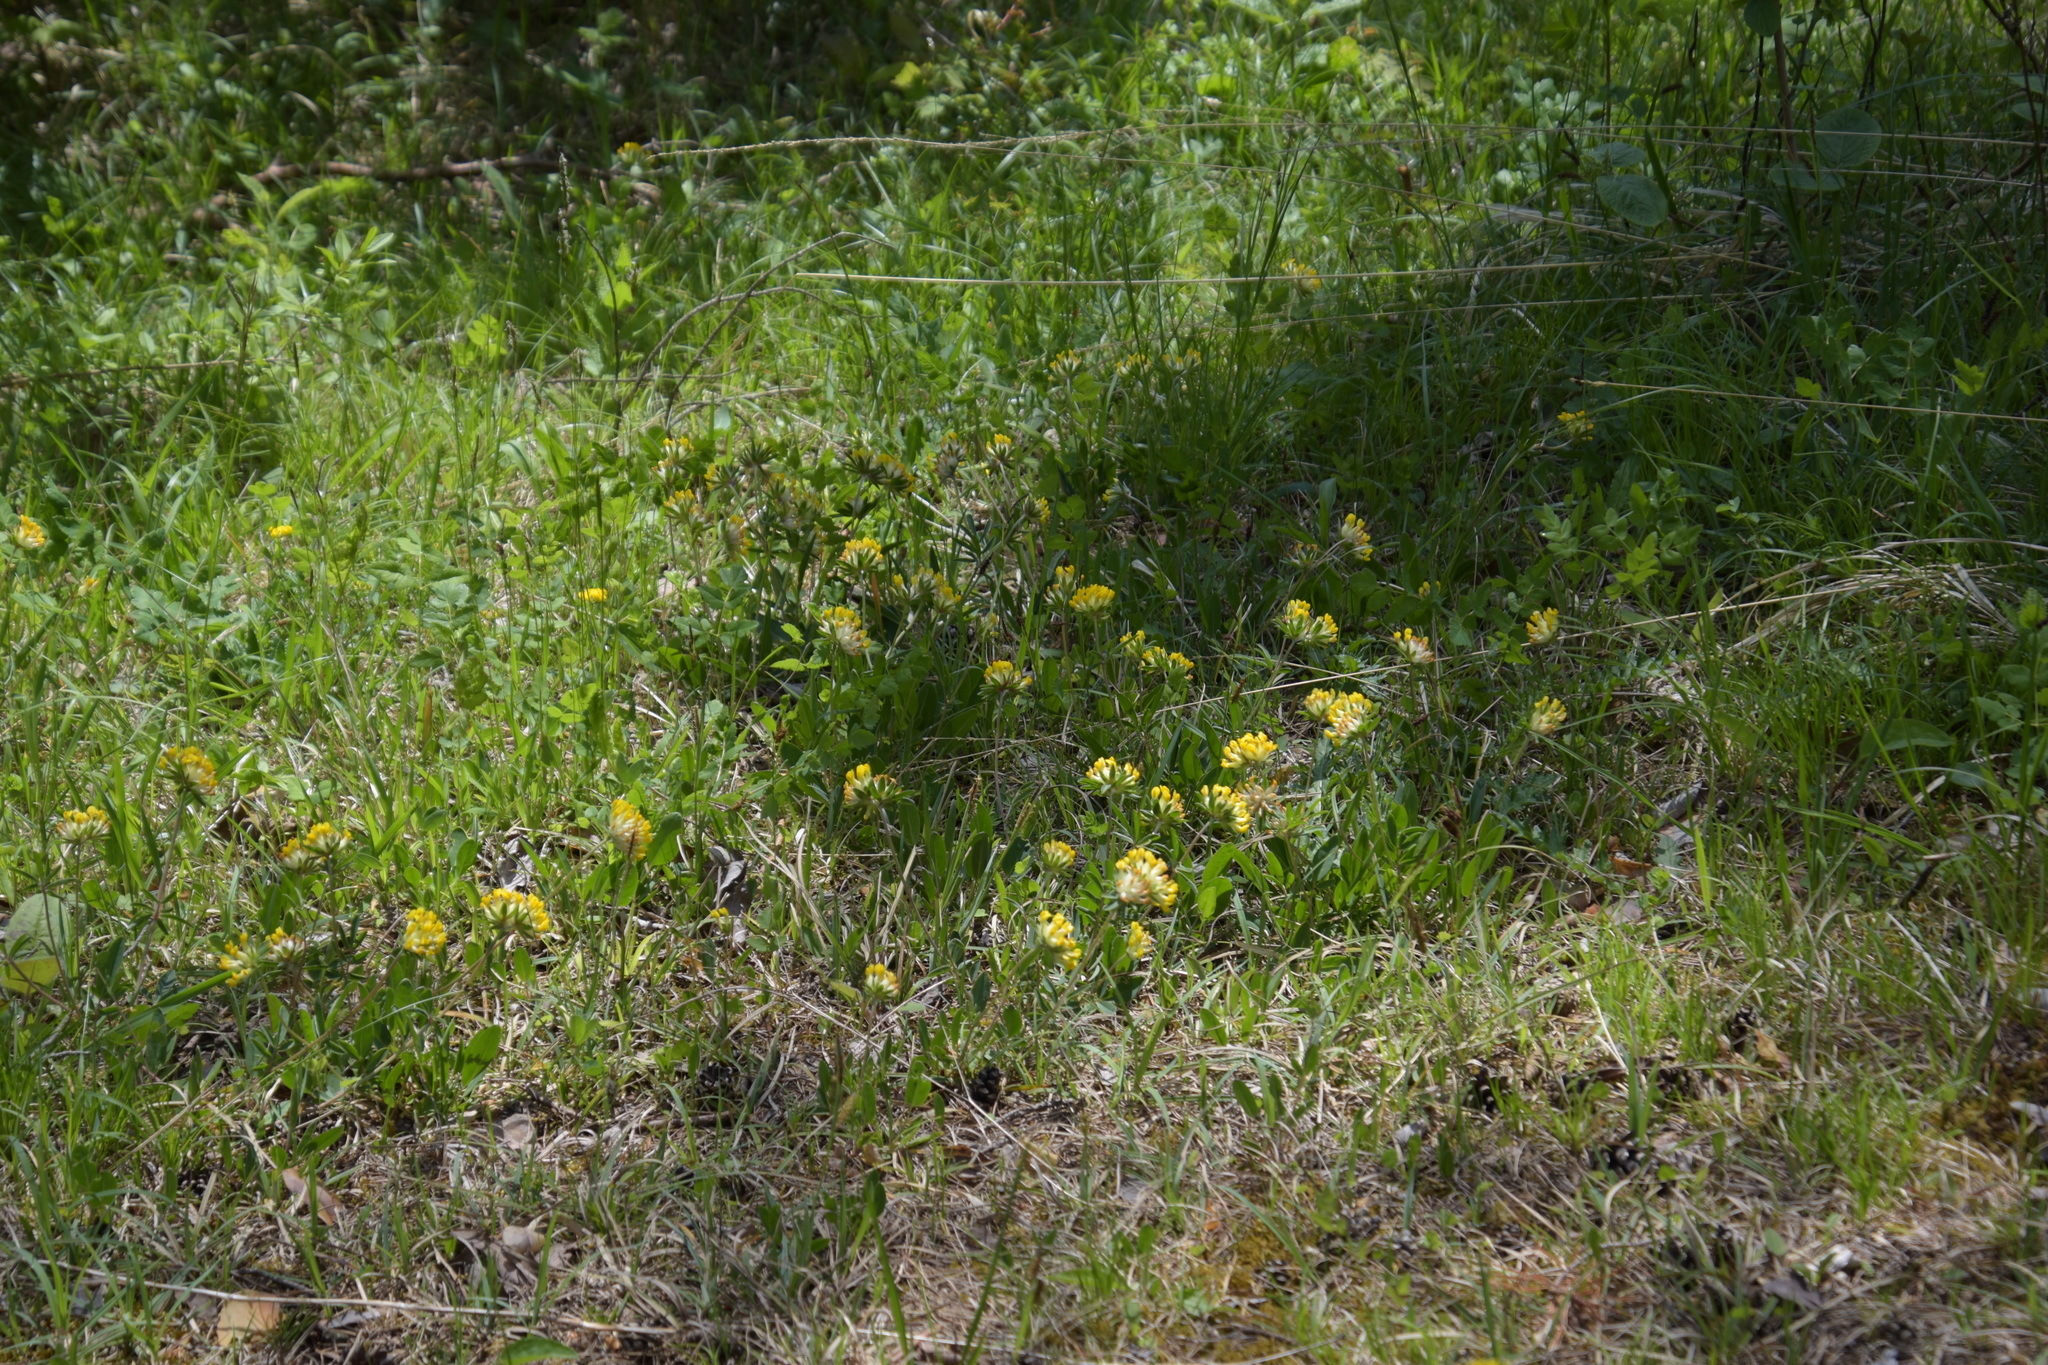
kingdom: Plantae
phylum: Tracheophyta
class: Magnoliopsida
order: Fabales
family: Fabaceae
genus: Anthyllis
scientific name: Anthyllis vulneraria
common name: Kidney vetch
